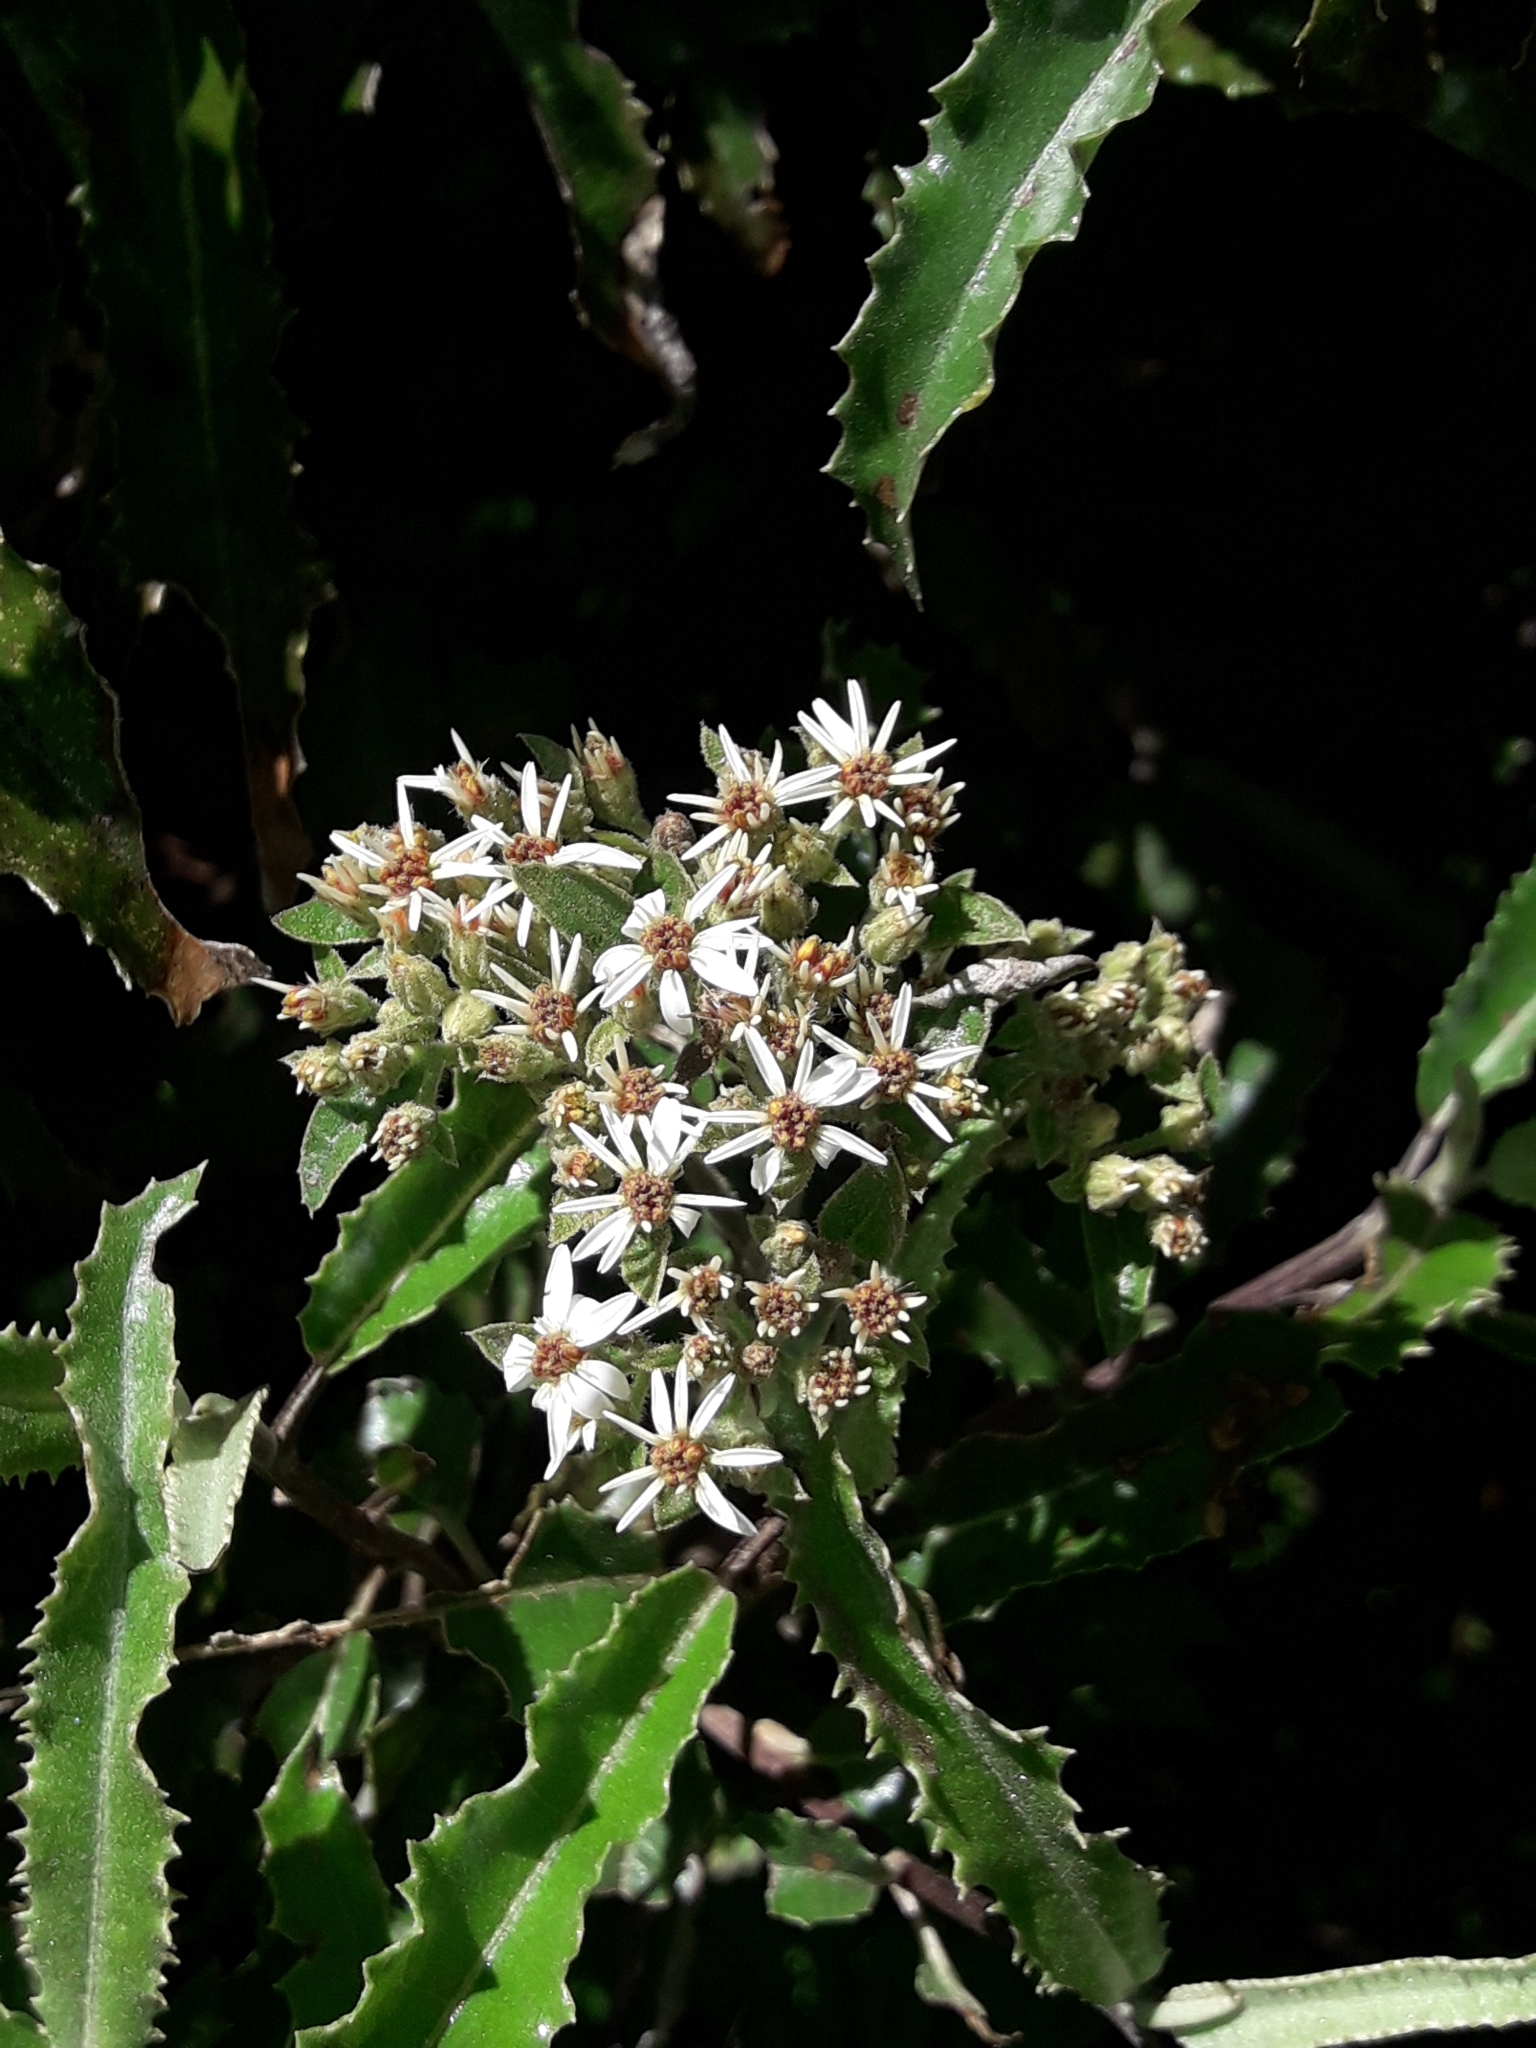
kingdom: Plantae
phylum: Tracheophyta
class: Magnoliopsida
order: Asterales
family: Asteraceae
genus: Olearia
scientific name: Olearia ilicifolia
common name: Maori-holly
